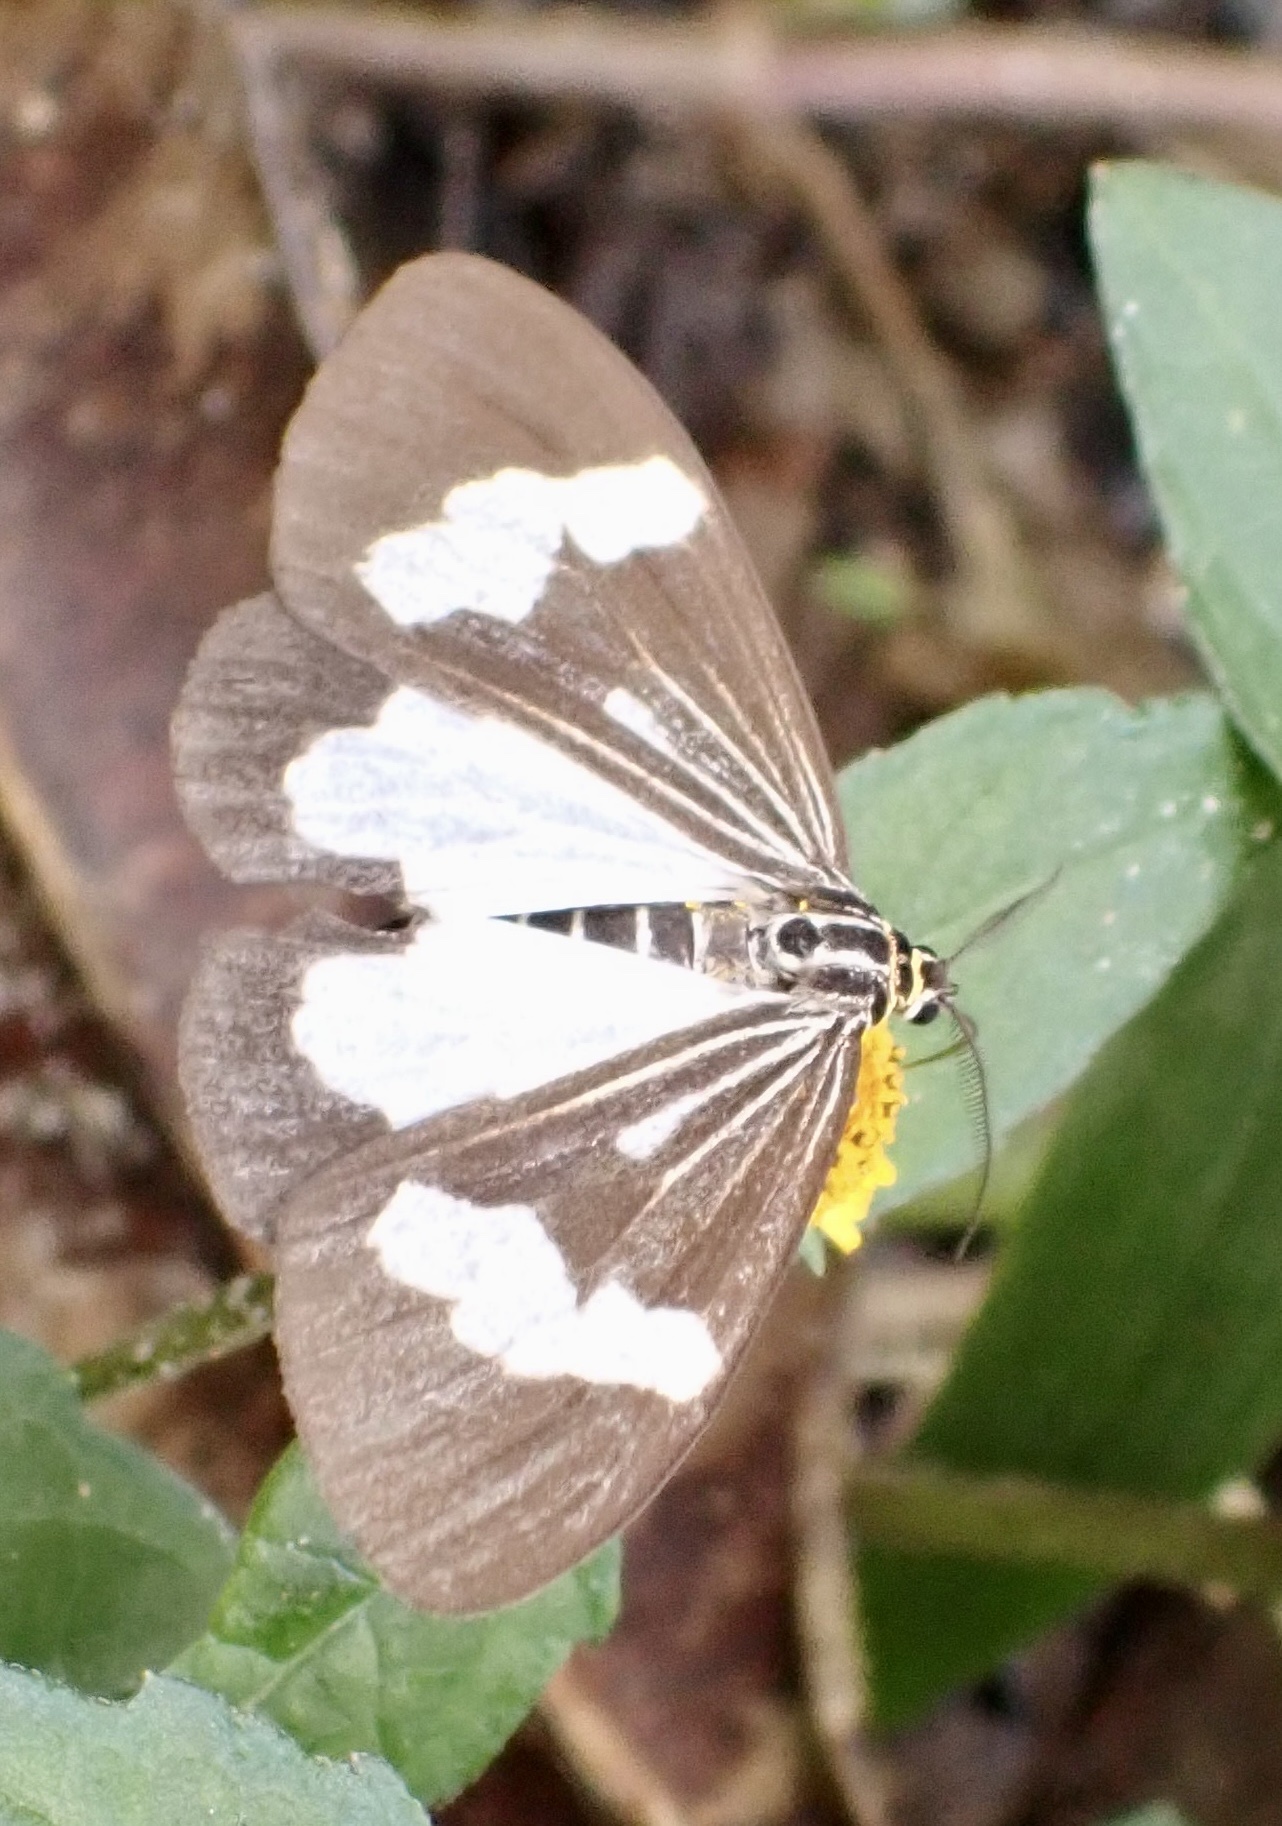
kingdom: Animalia
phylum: Arthropoda
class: Insecta
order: Lepidoptera
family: Erebidae
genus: Nyctemera
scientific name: Nyctemera luctuosum
